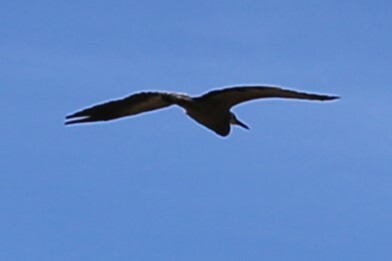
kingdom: Animalia
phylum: Chordata
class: Aves
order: Pelecaniformes
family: Ardeidae
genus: Egretta
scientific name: Egretta novaehollandiae
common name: White-faced heron
